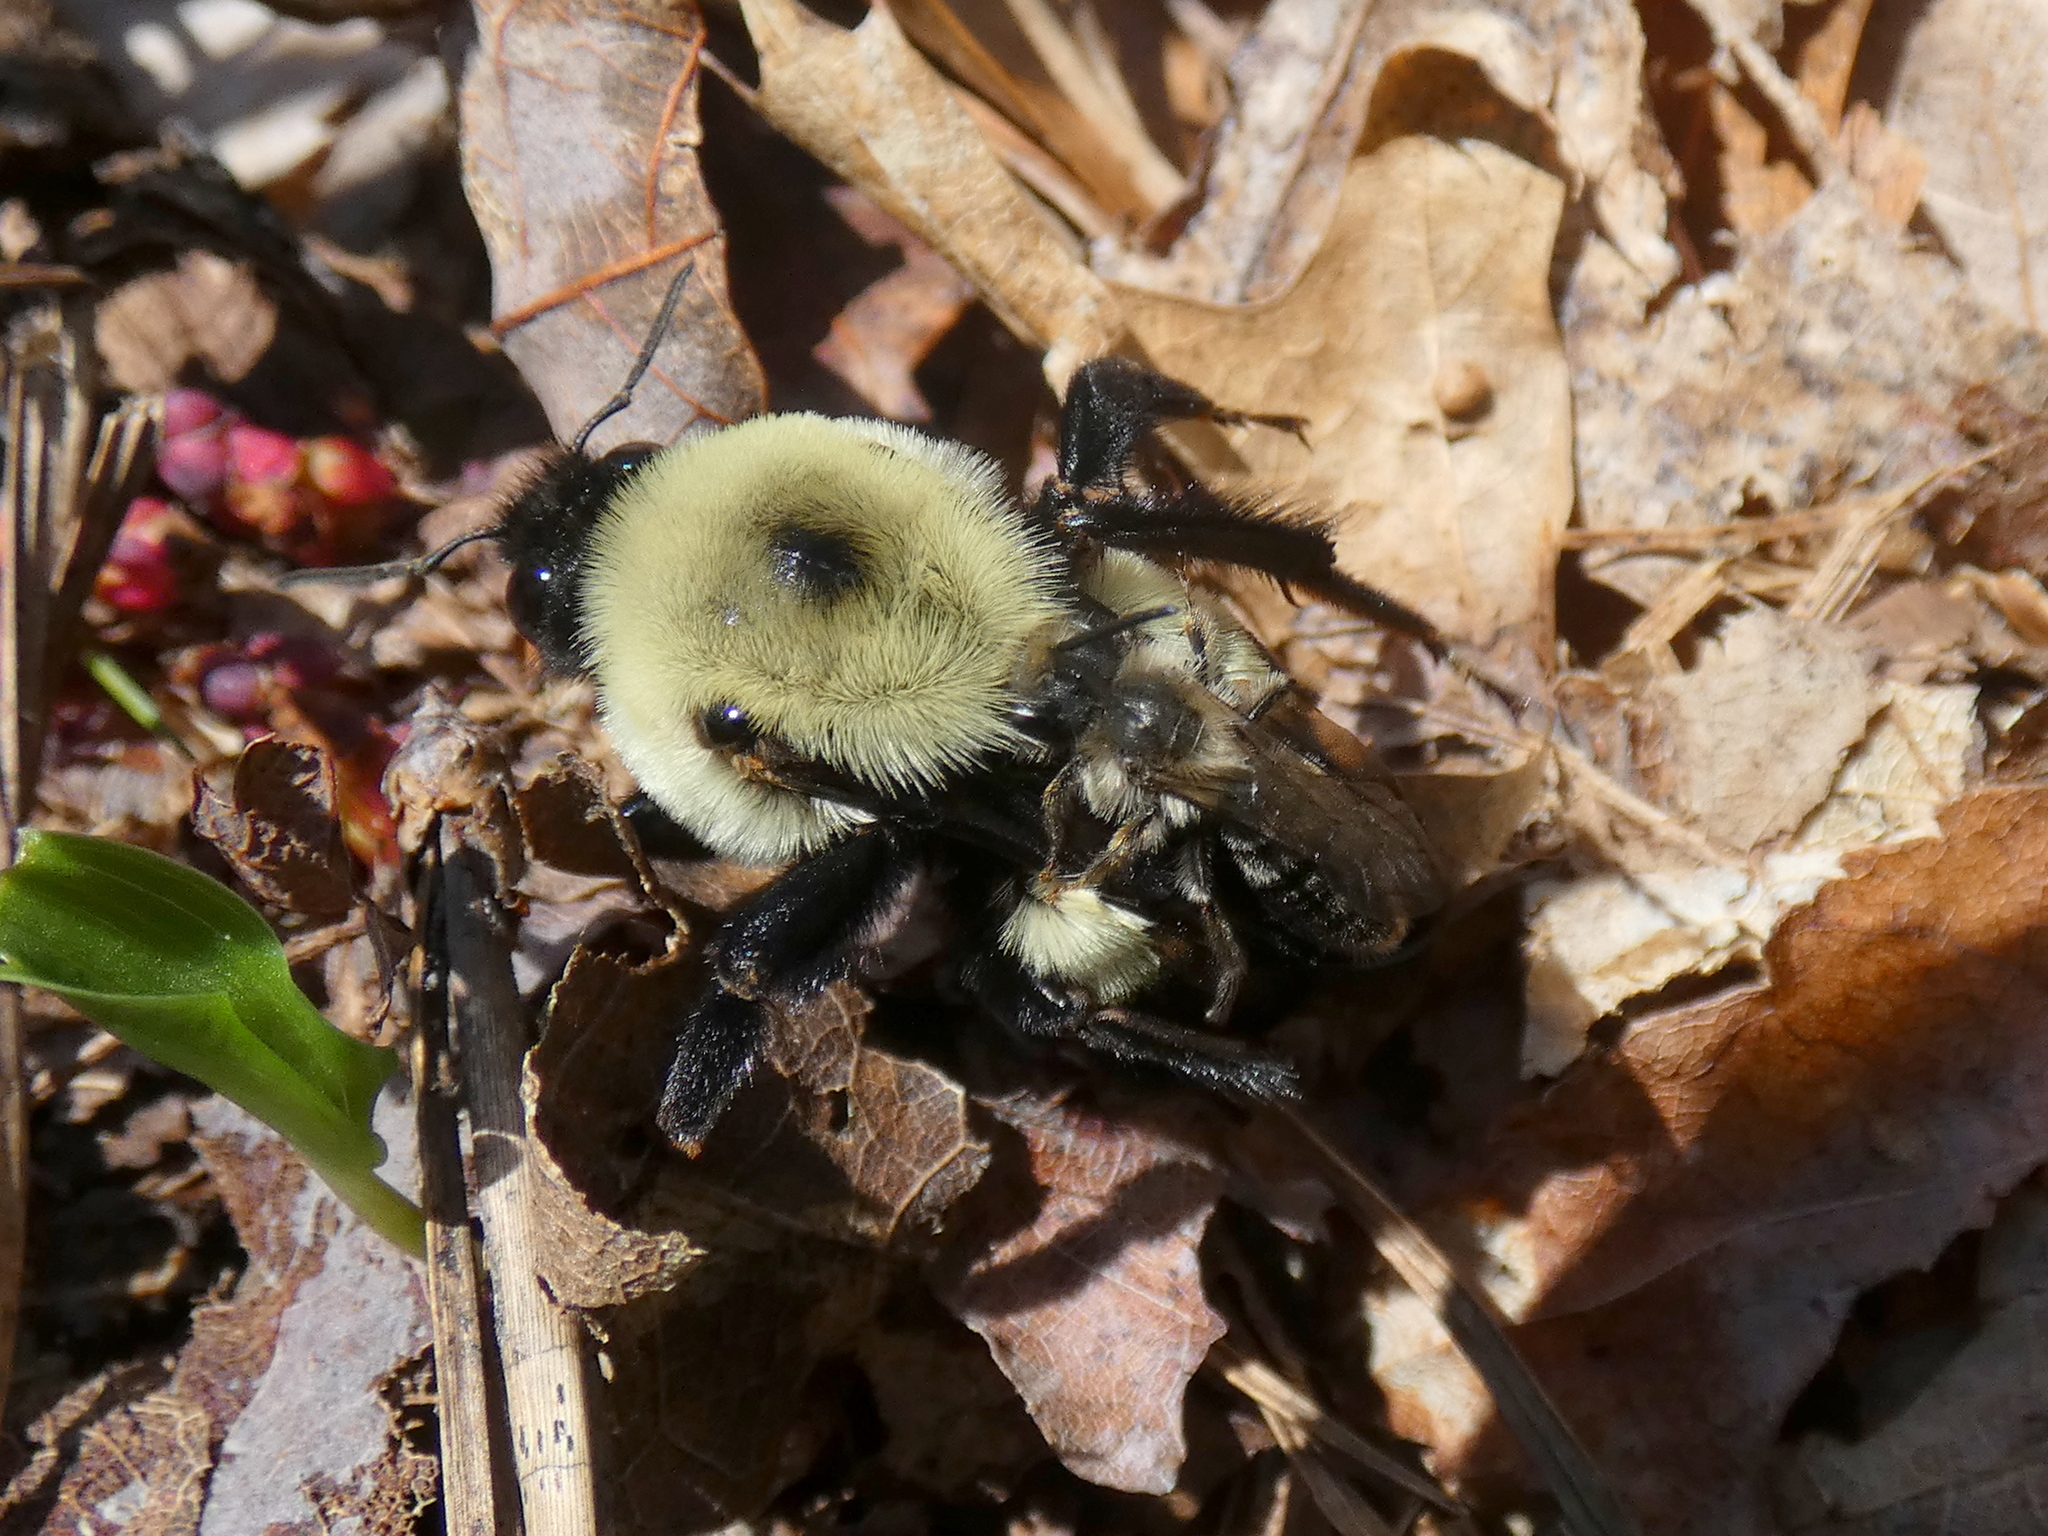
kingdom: Animalia
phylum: Arthropoda
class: Insecta
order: Hymenoptera
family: Apidae
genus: Bombus
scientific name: Bombus griseocollis
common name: Brown-belted bumble bee
